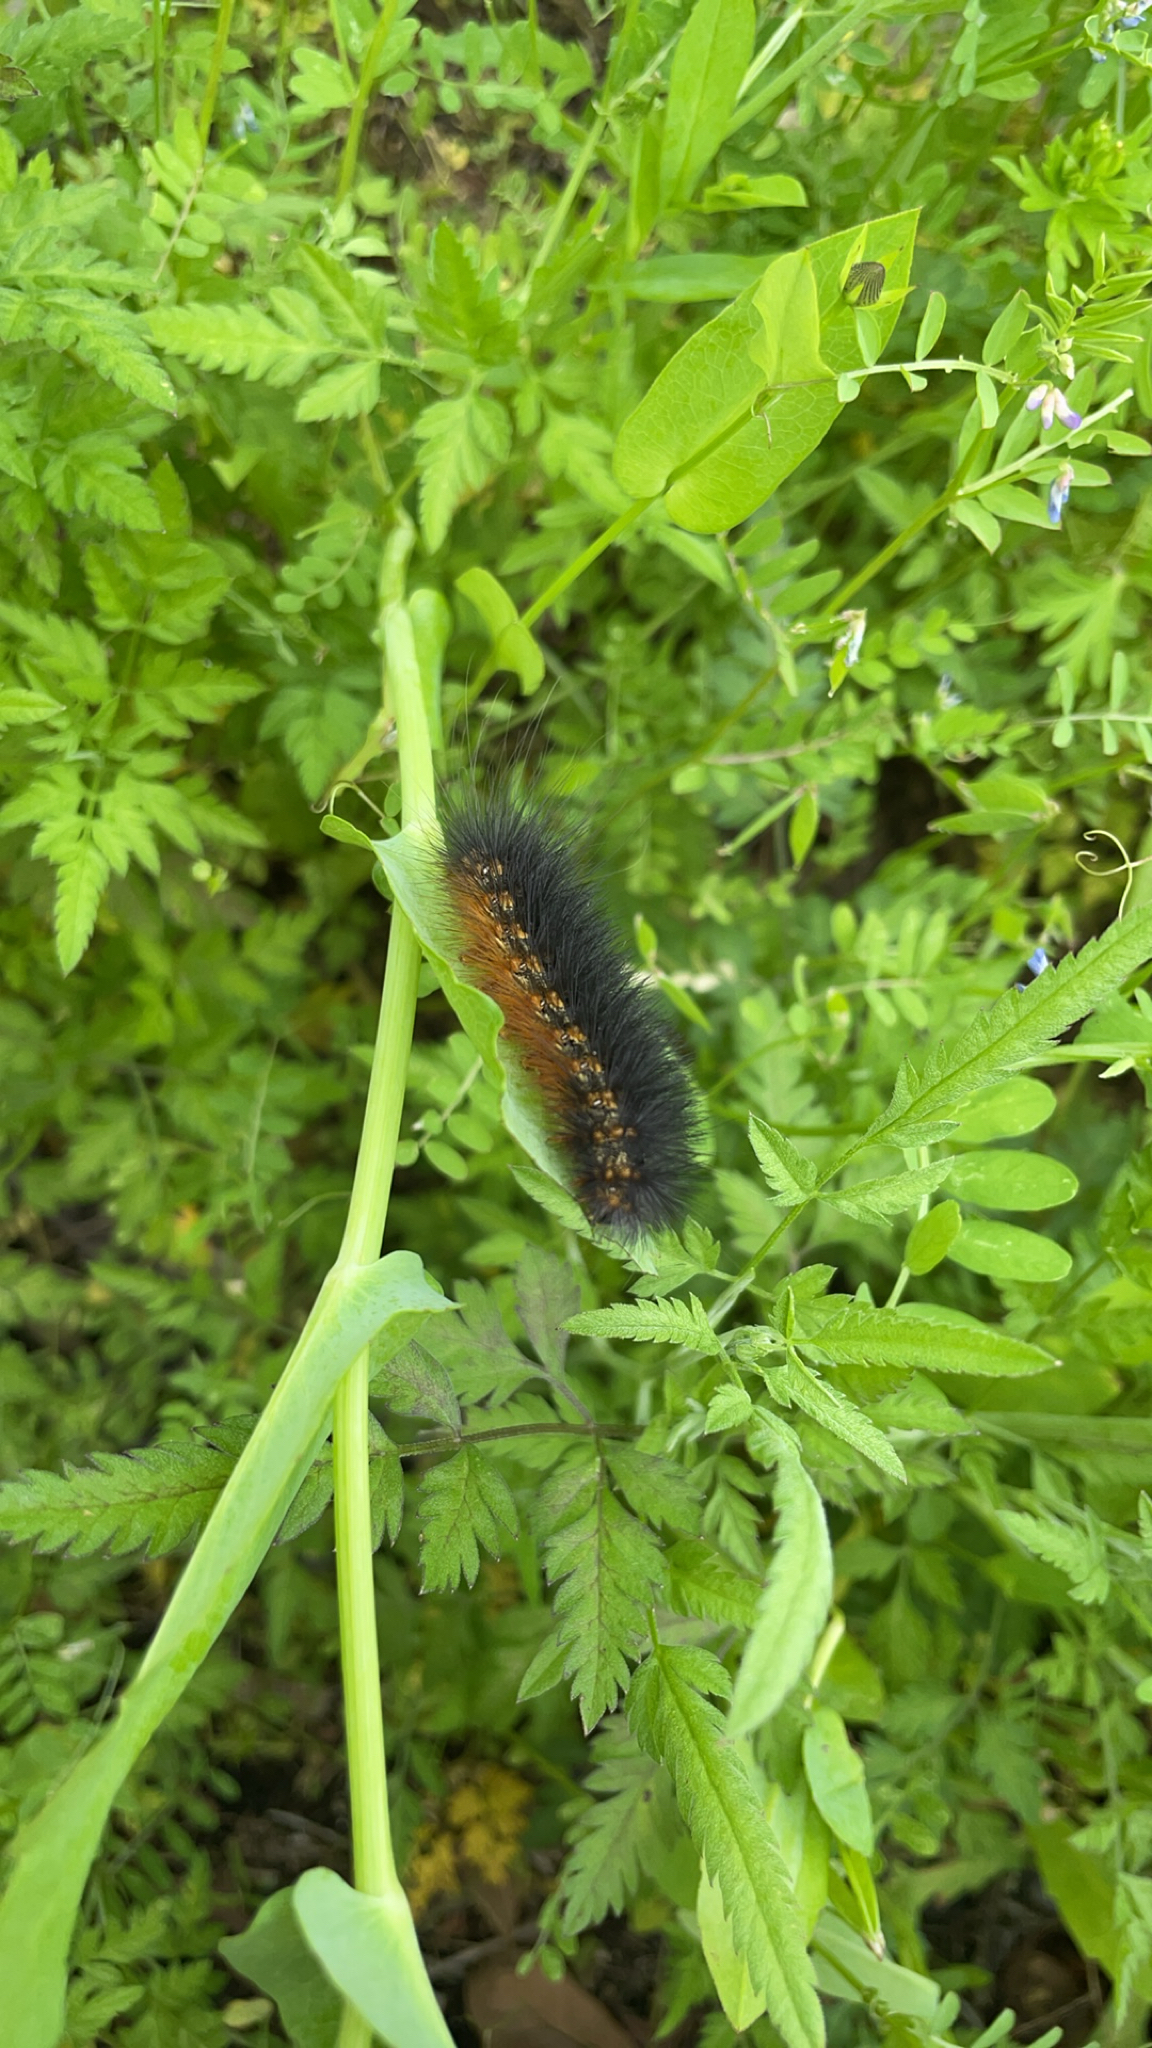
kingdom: Animalia
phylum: Arthropoda
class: Insecta
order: Lepidoptera
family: Erebidae
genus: Estigmene
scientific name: Estigmene acrea
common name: Salt marsh moth
